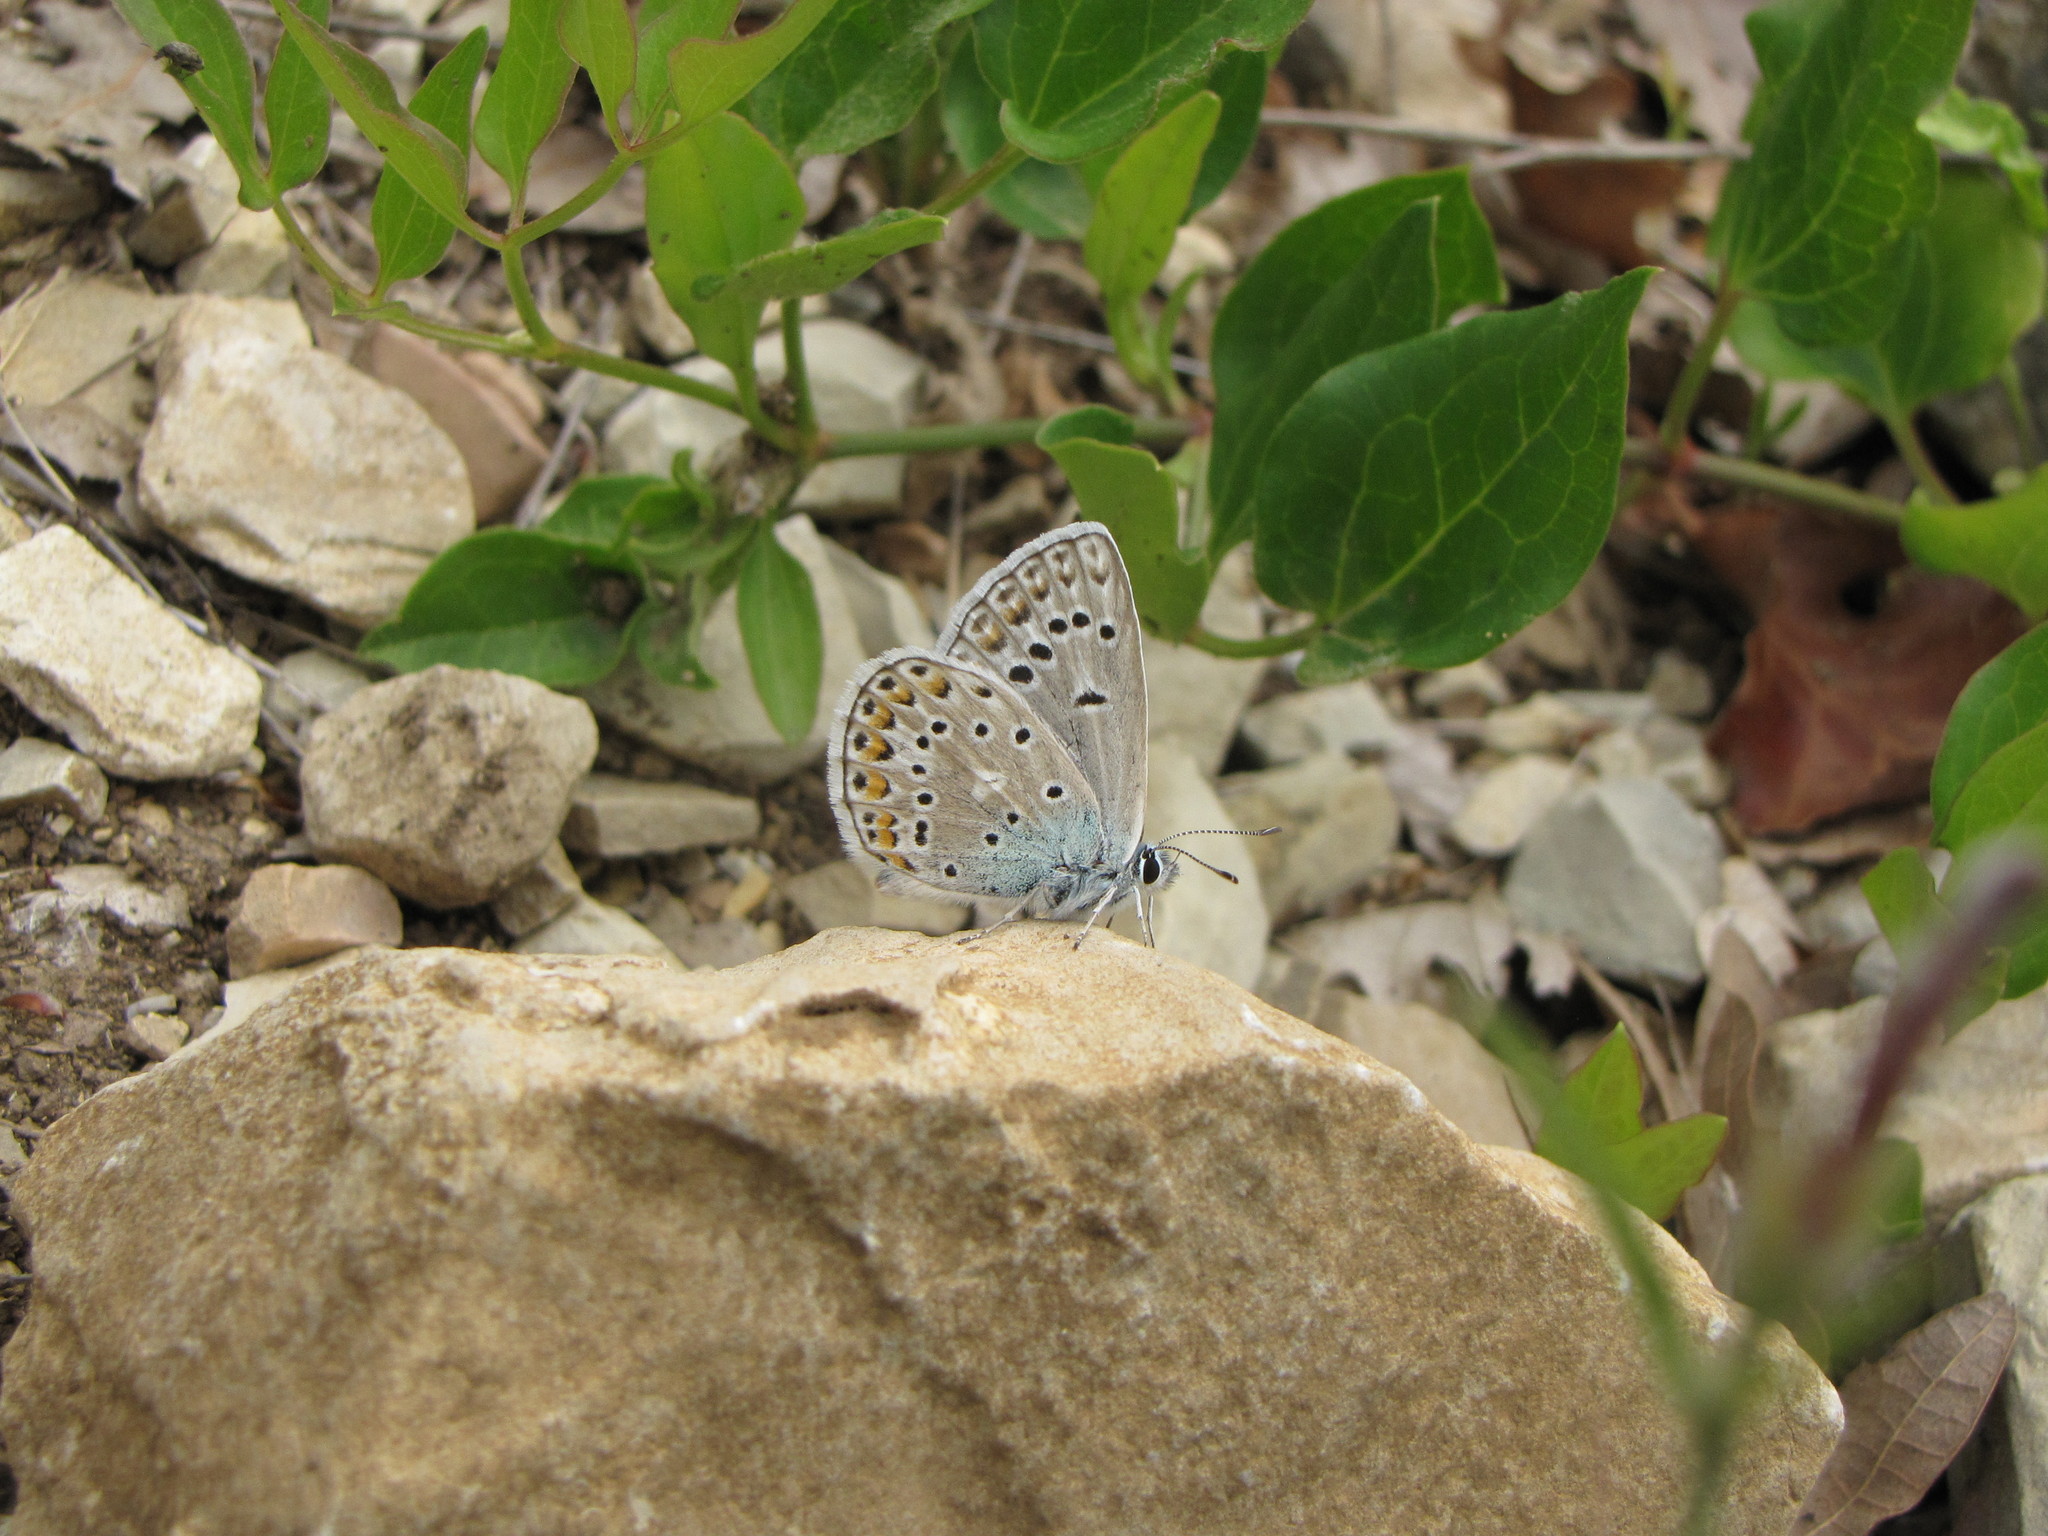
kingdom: Animalia
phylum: Arthropoda
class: Insecta
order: Lepidoptera
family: Lycaenidae
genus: Plebicula
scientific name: Plebicula escheri
